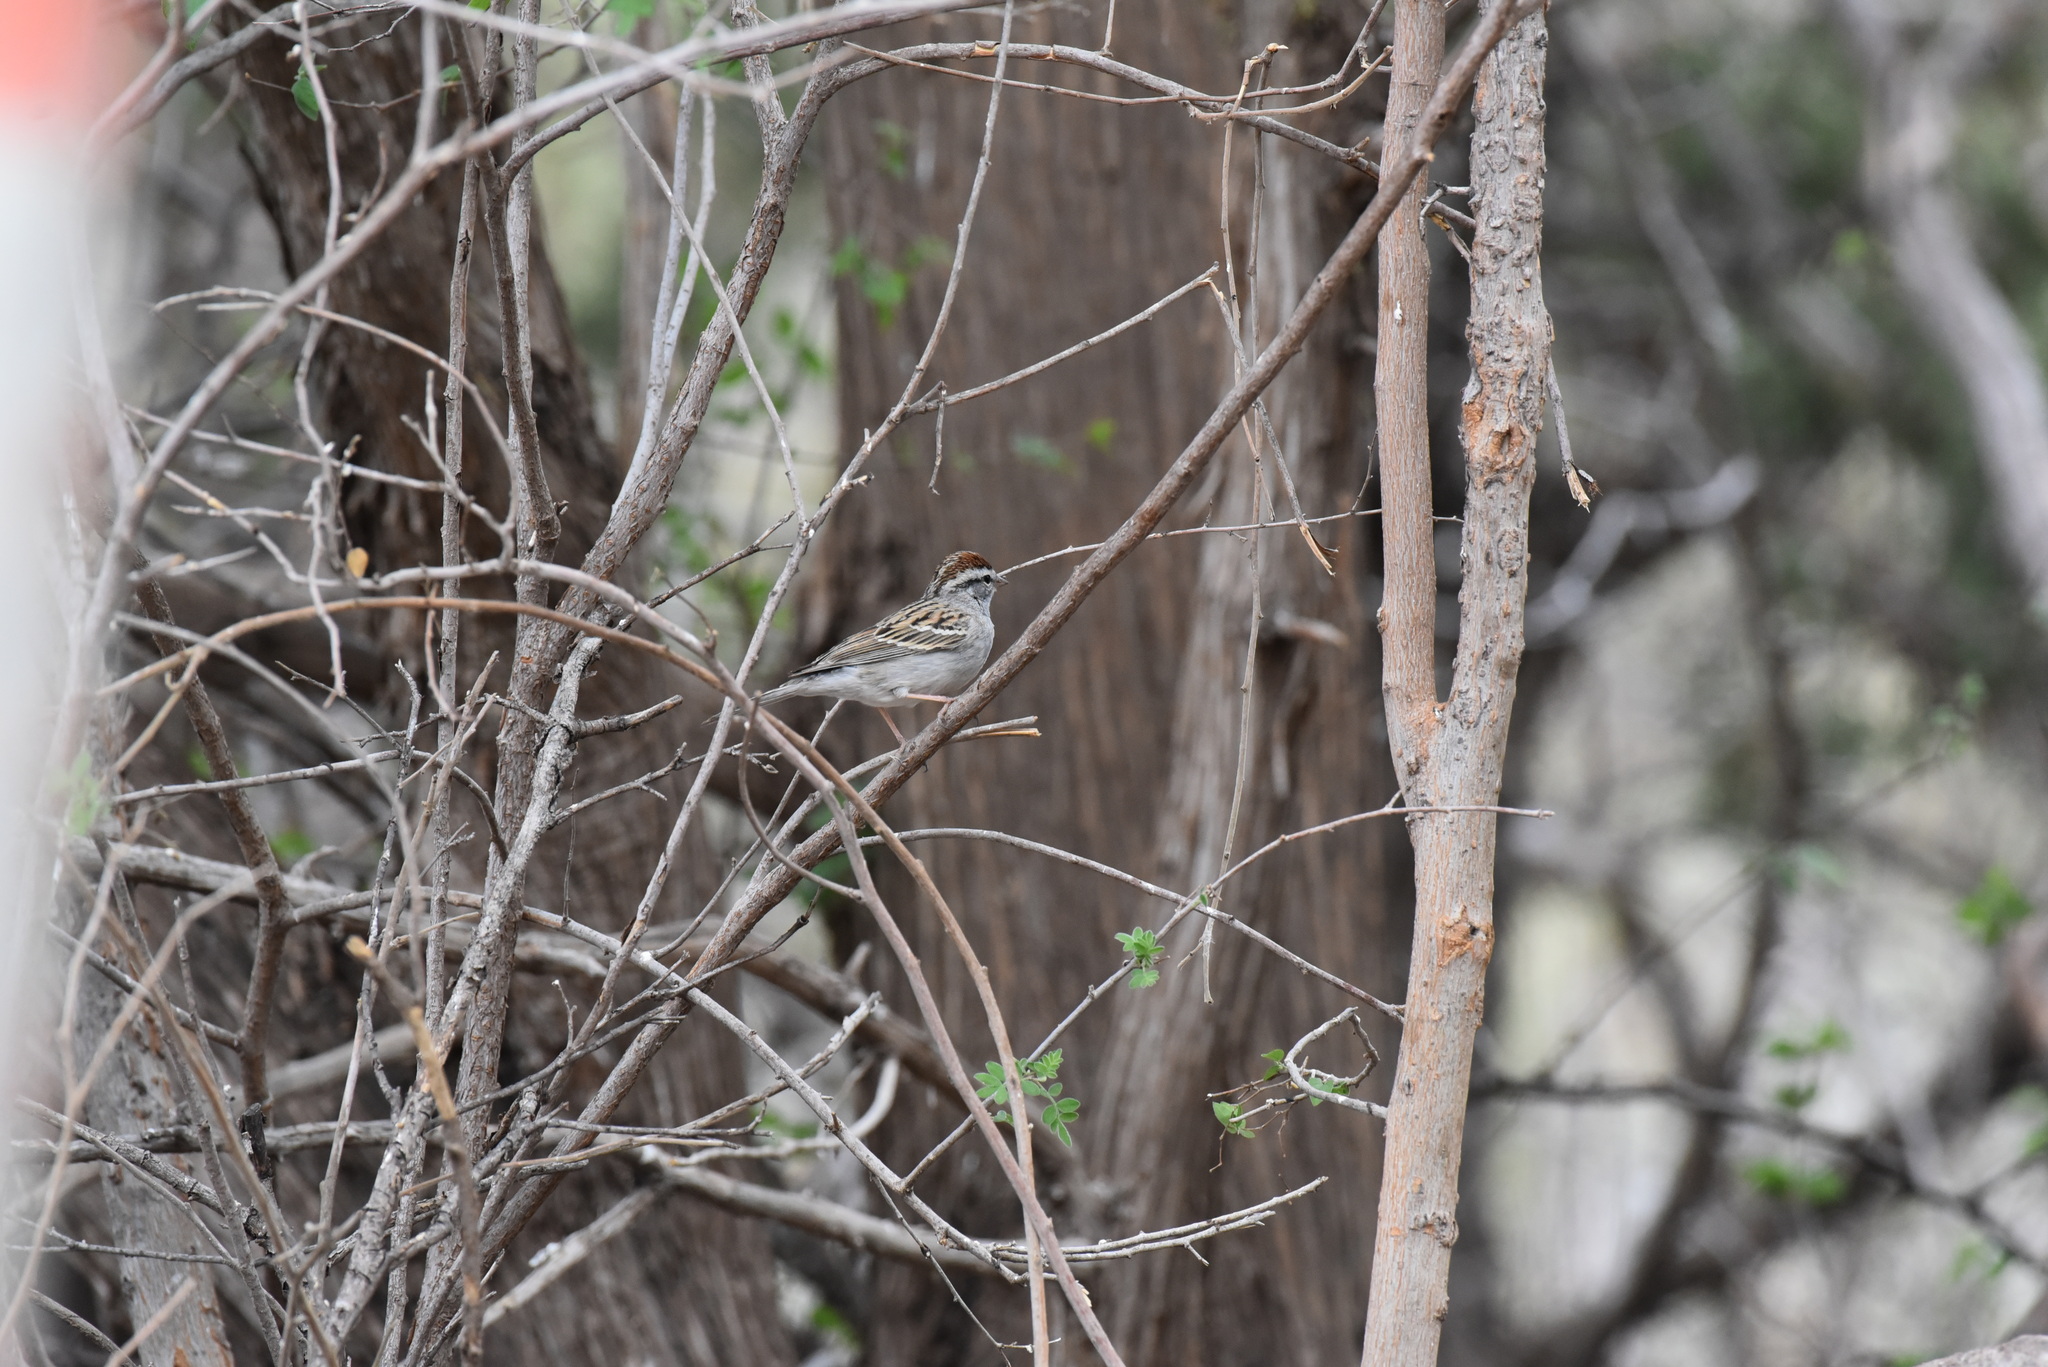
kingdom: Animalia
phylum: Chordata
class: Aves
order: Passeriformes
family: Passerellidae
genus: Spizella
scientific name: Spizella passerina
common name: Chipping sparrow
